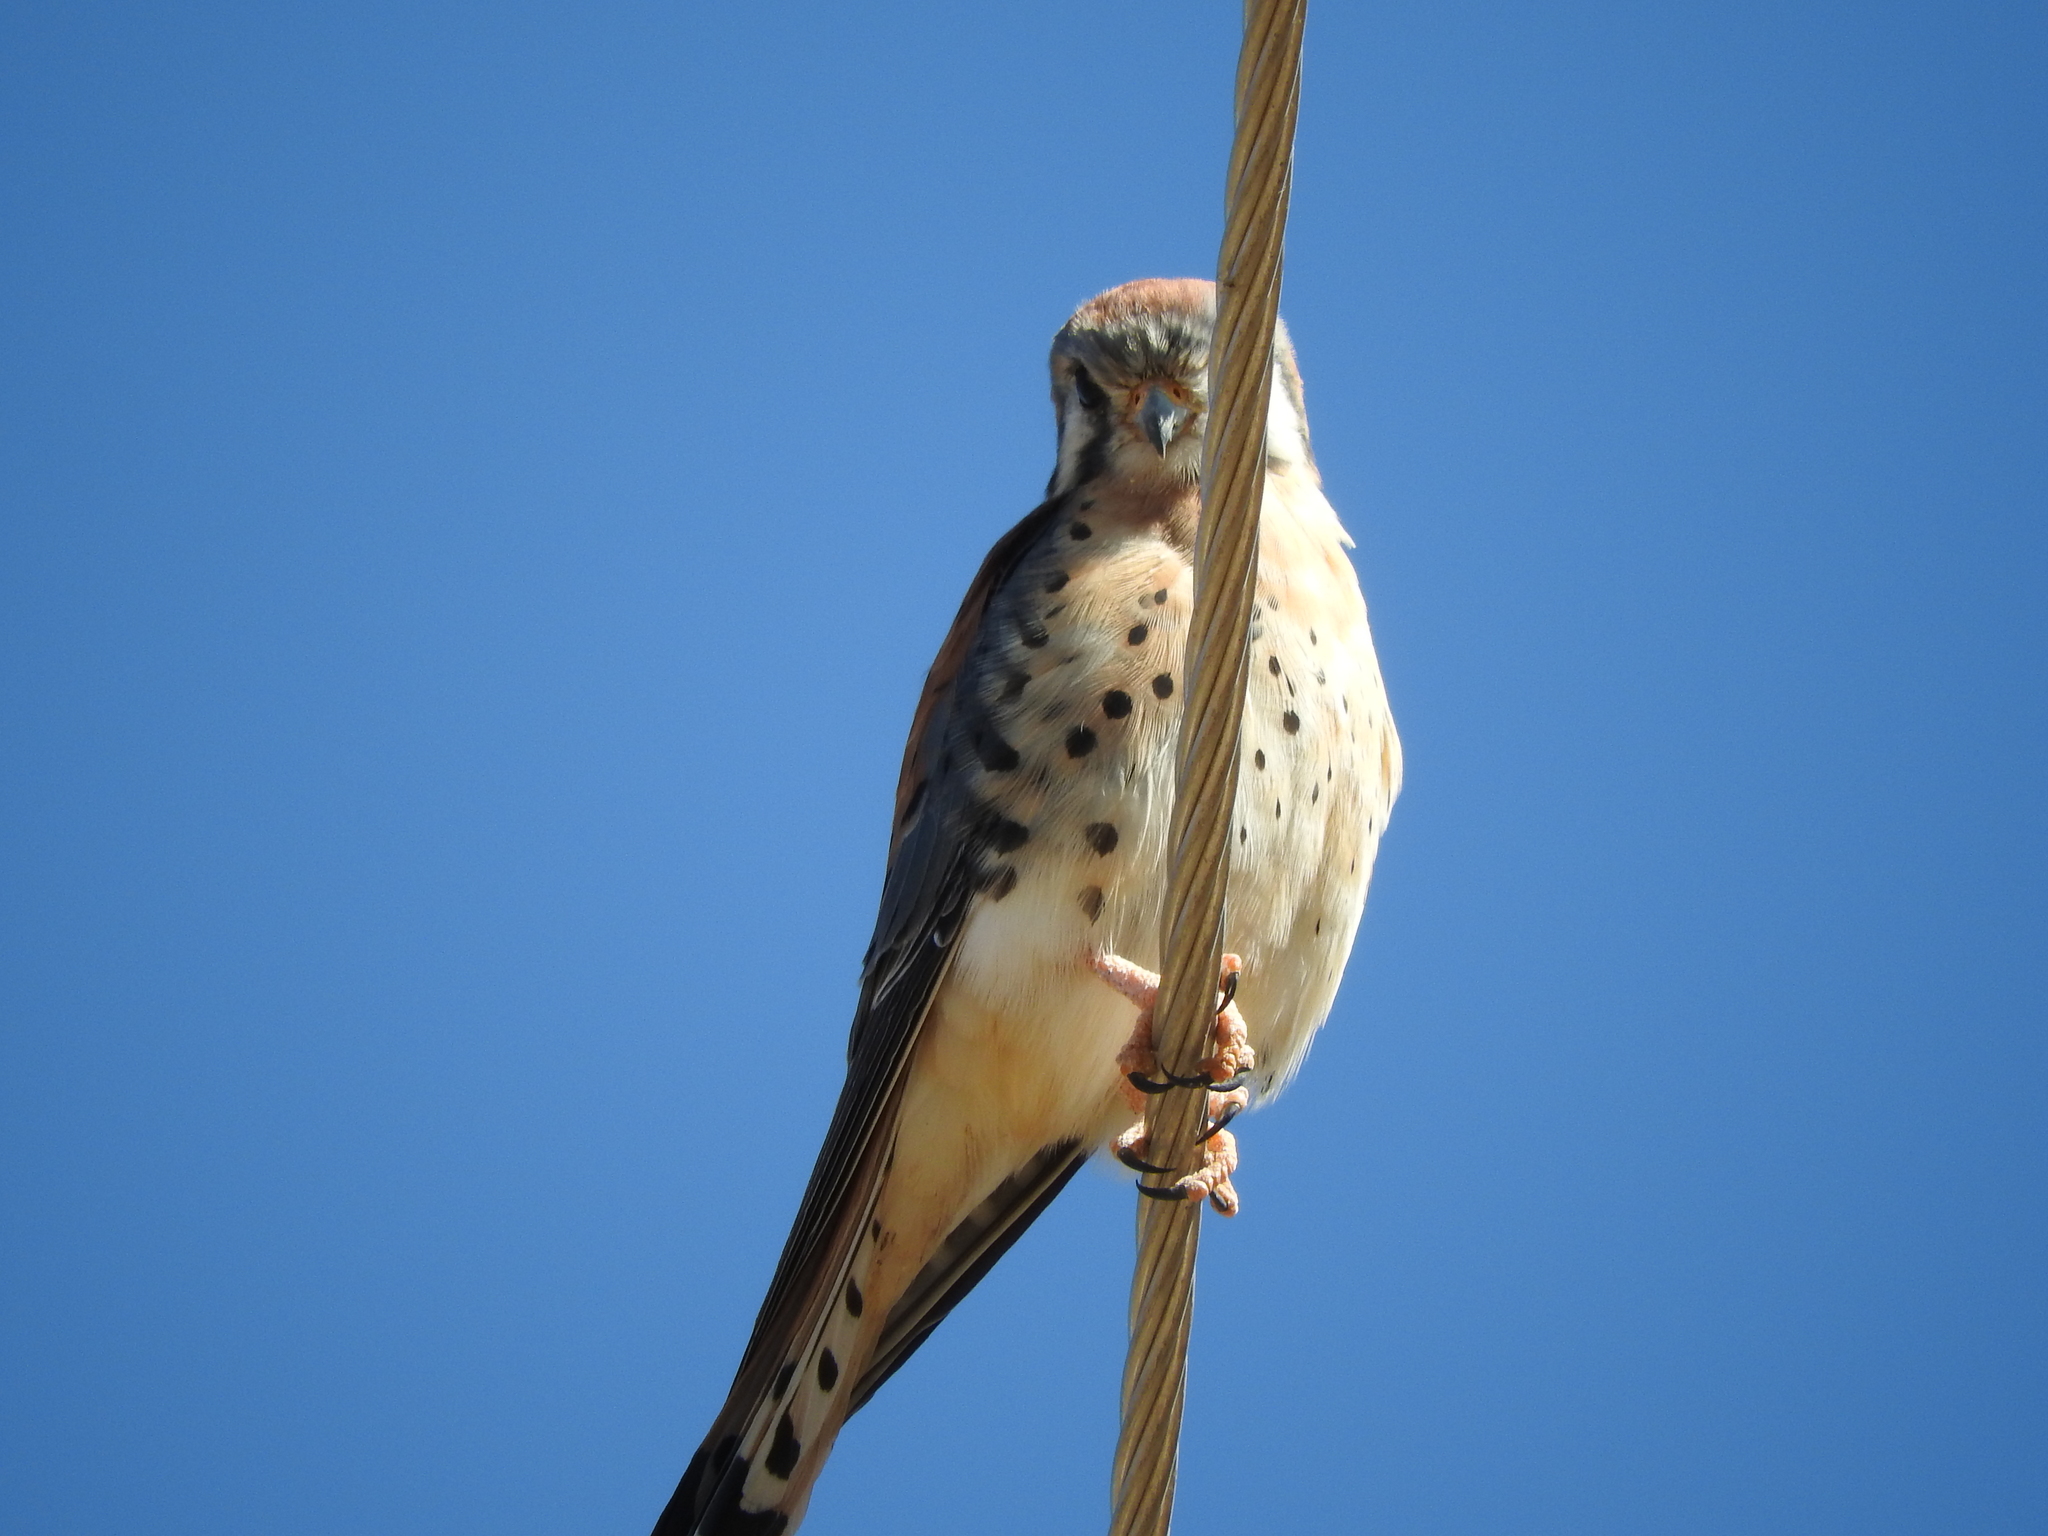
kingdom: Animalia
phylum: Chordata
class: Aves
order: Falconiformes
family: Falconidae
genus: Falco
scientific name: Falco sparverius
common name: American kestrel
